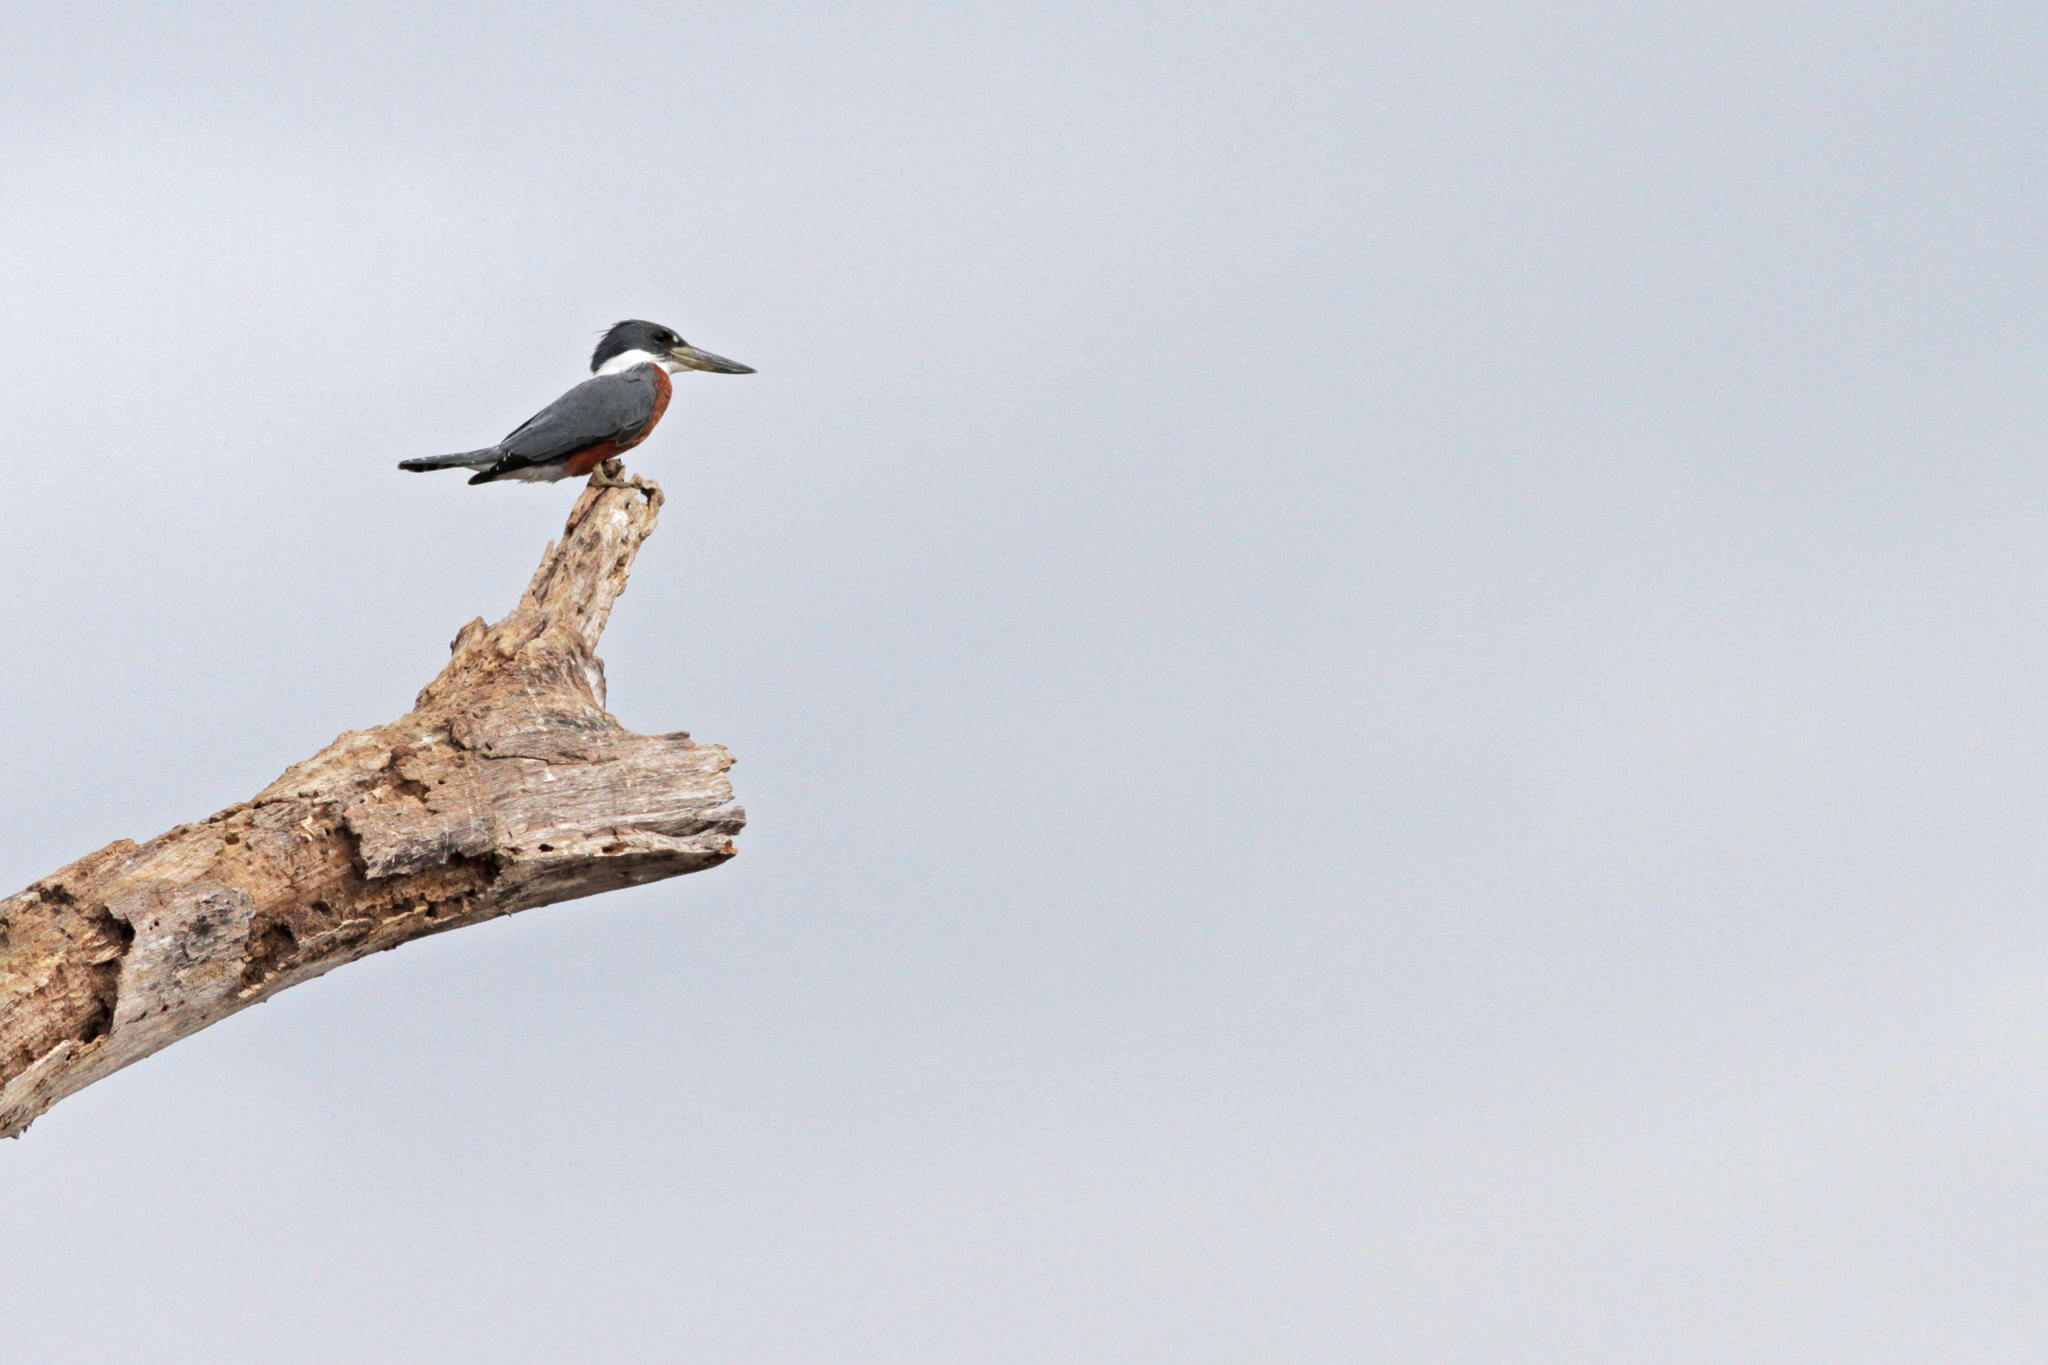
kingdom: Animalia
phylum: Chordata
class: Aves
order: Coraciiformes
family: Alcedinidae
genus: Megaceryle
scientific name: Megaceryle torquata
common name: Ringed kingfisher
